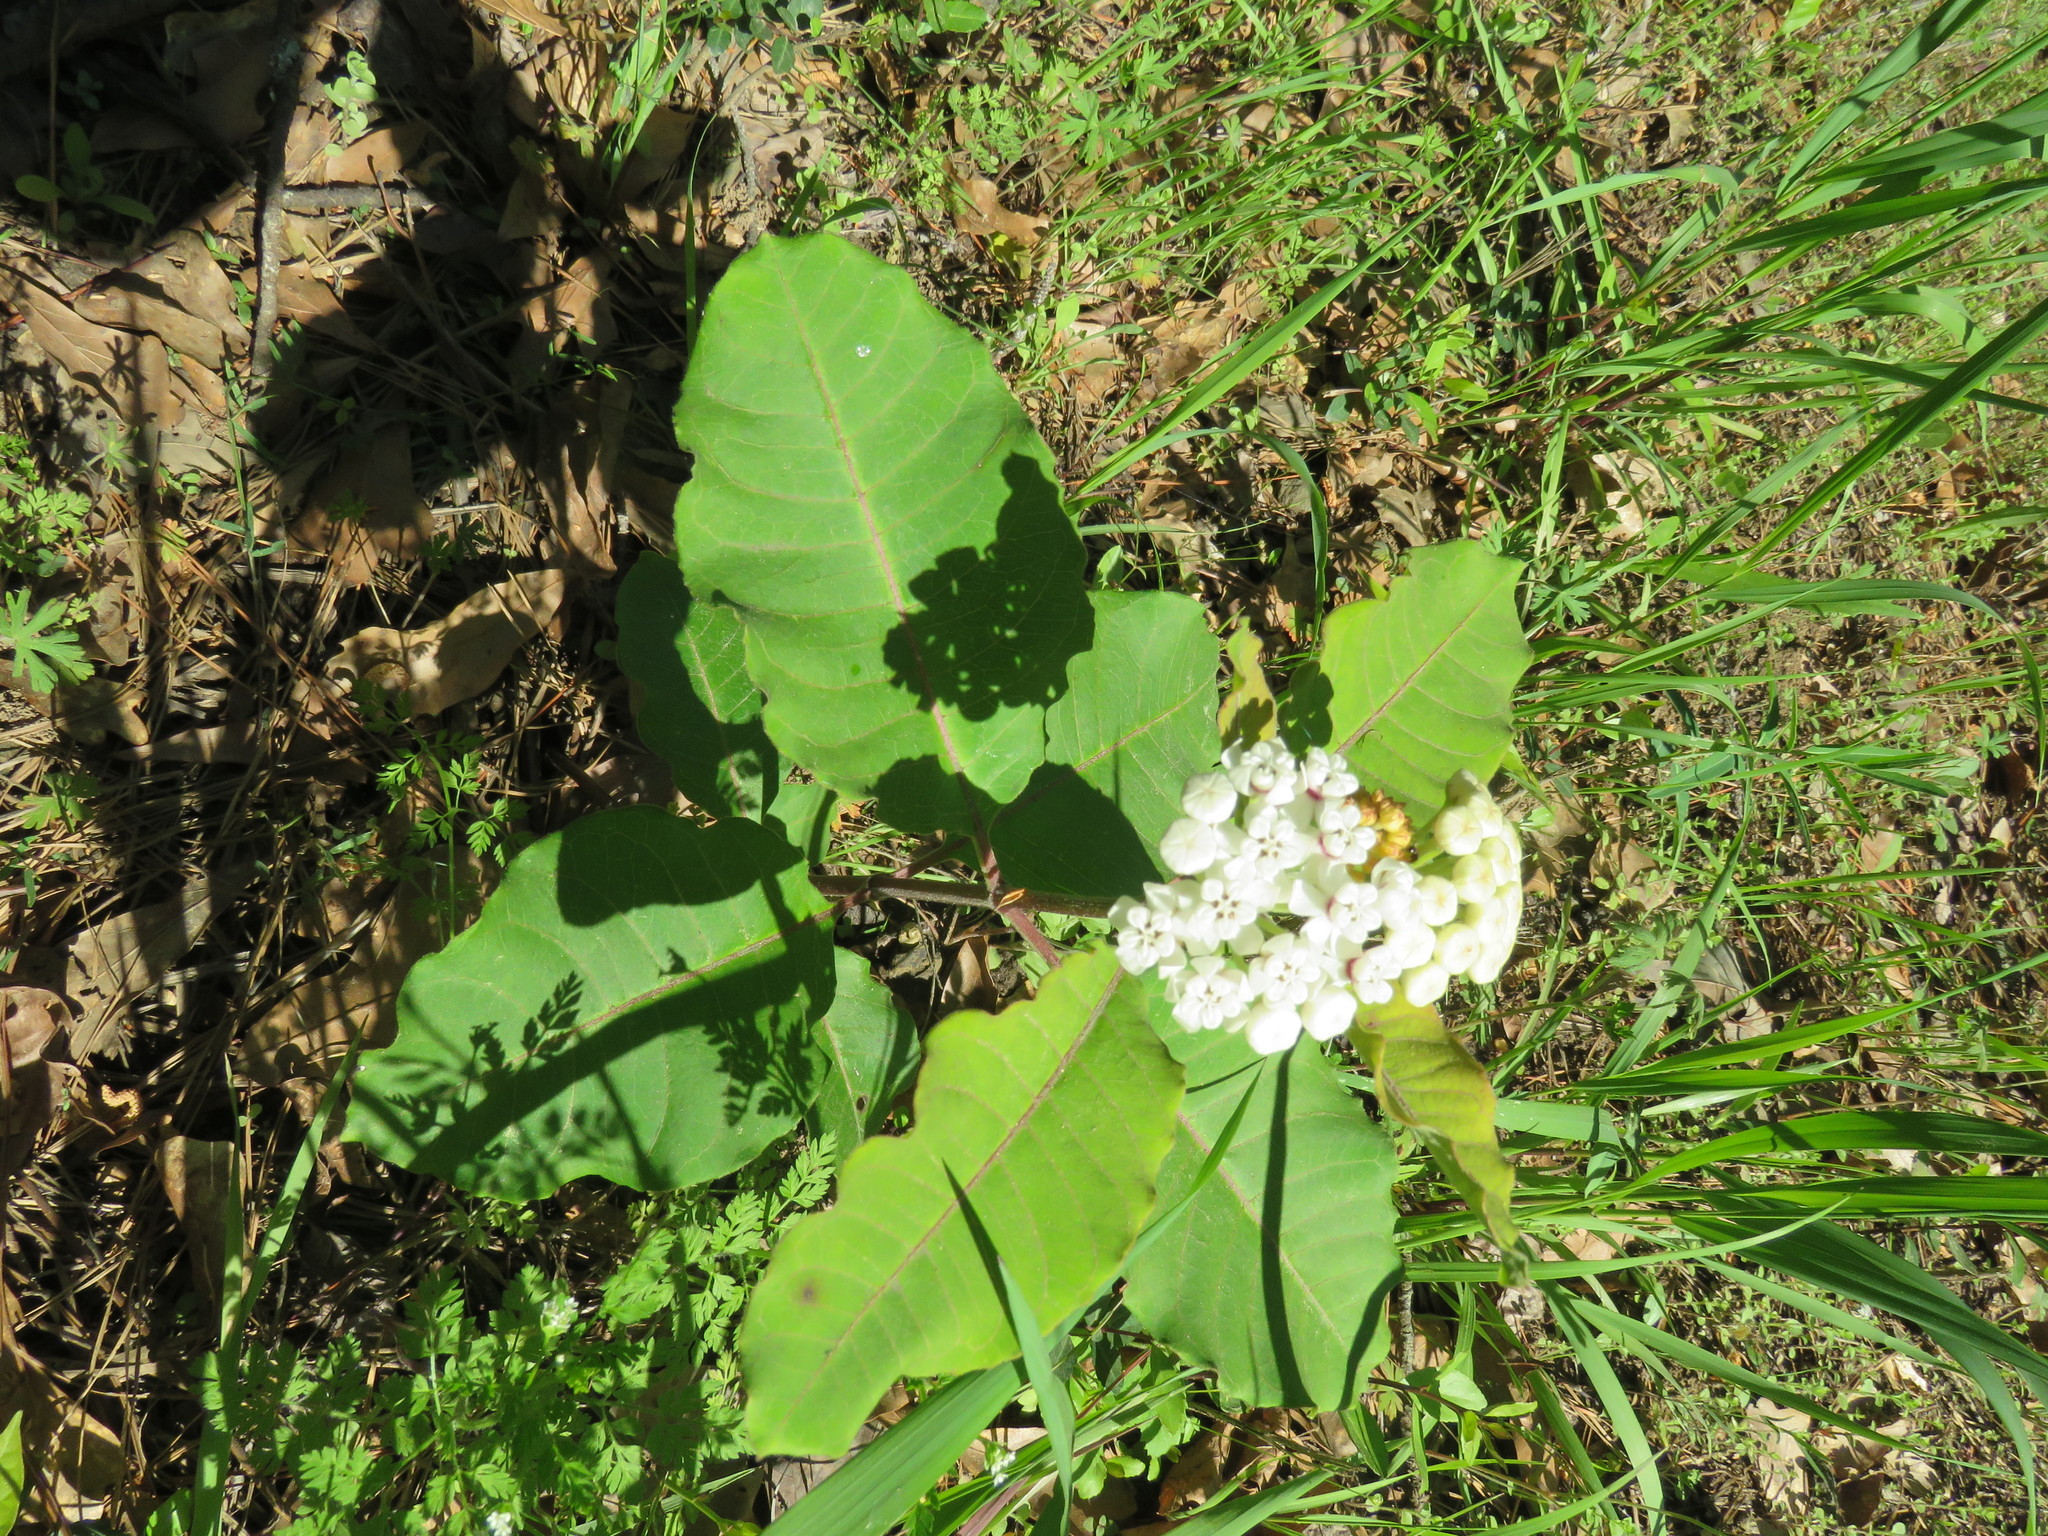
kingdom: Plantae
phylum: Tracheophyta
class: Magnoliopsida
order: Gentianales
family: Apocynaceae
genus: Asclepias
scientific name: Asclepias variegata
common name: Variegated milkweed
